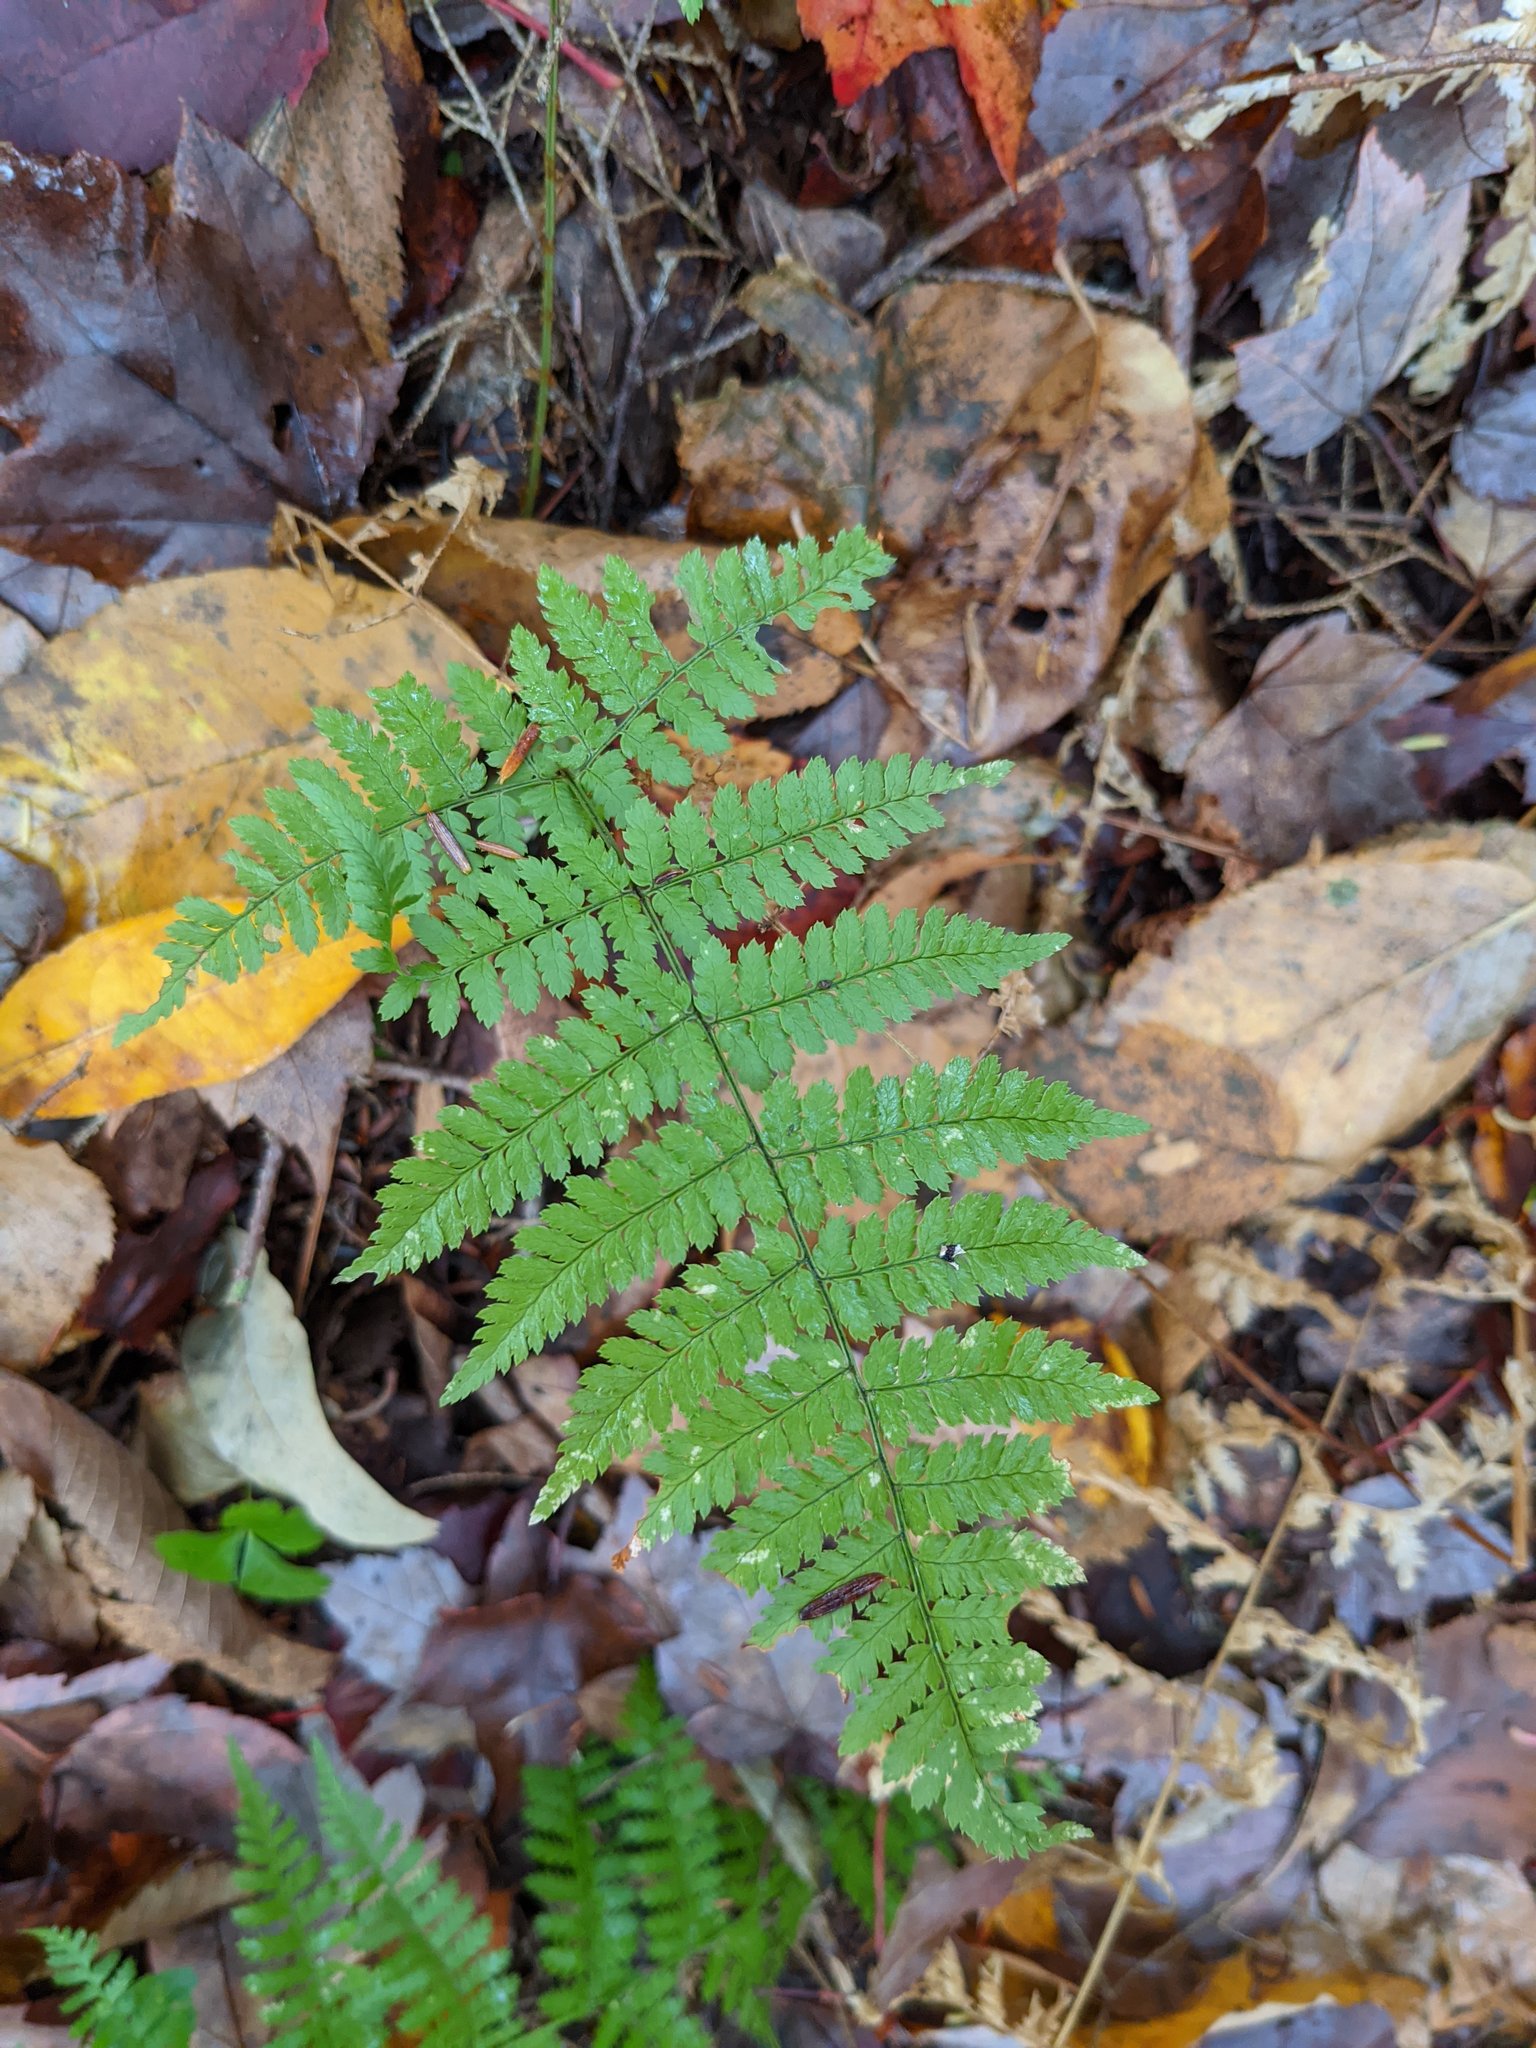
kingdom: Plantae
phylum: Tracheophyta
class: Polypodiopsida
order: Polypodiales
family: Dryopteridaceae
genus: Dryopteris
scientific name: Dryopteris intermedia
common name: Evergreen wood fern
